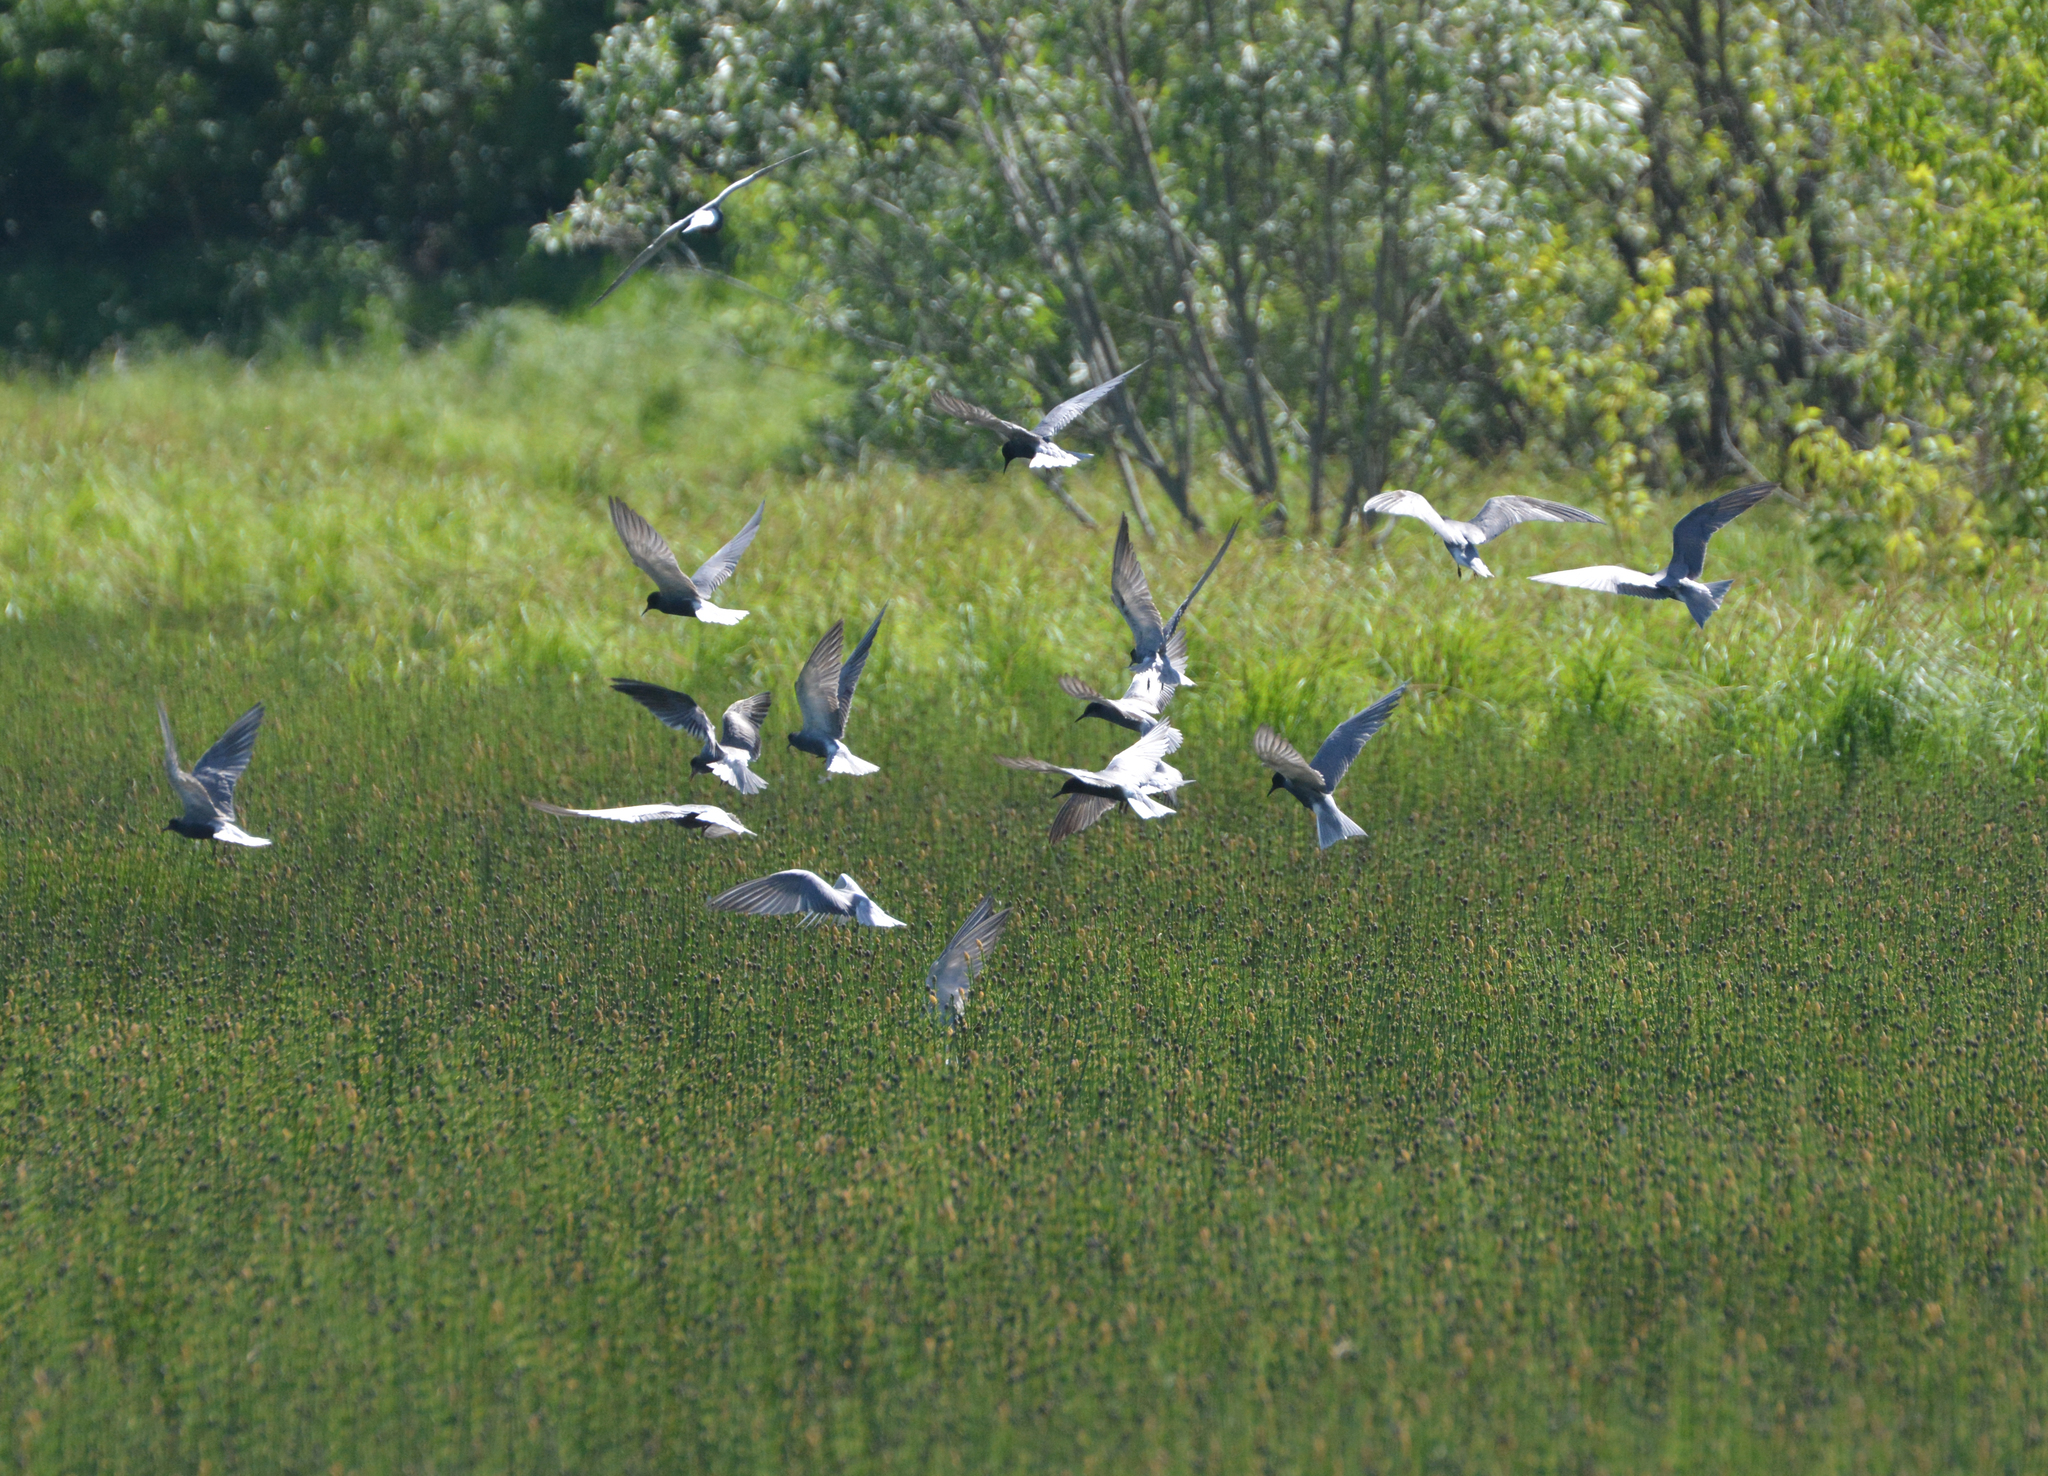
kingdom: Animalia
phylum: Chordata
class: Aves
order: Charadriiformes
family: Laridae
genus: Chlidonias
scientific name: Chlidonias niger
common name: Black tern
